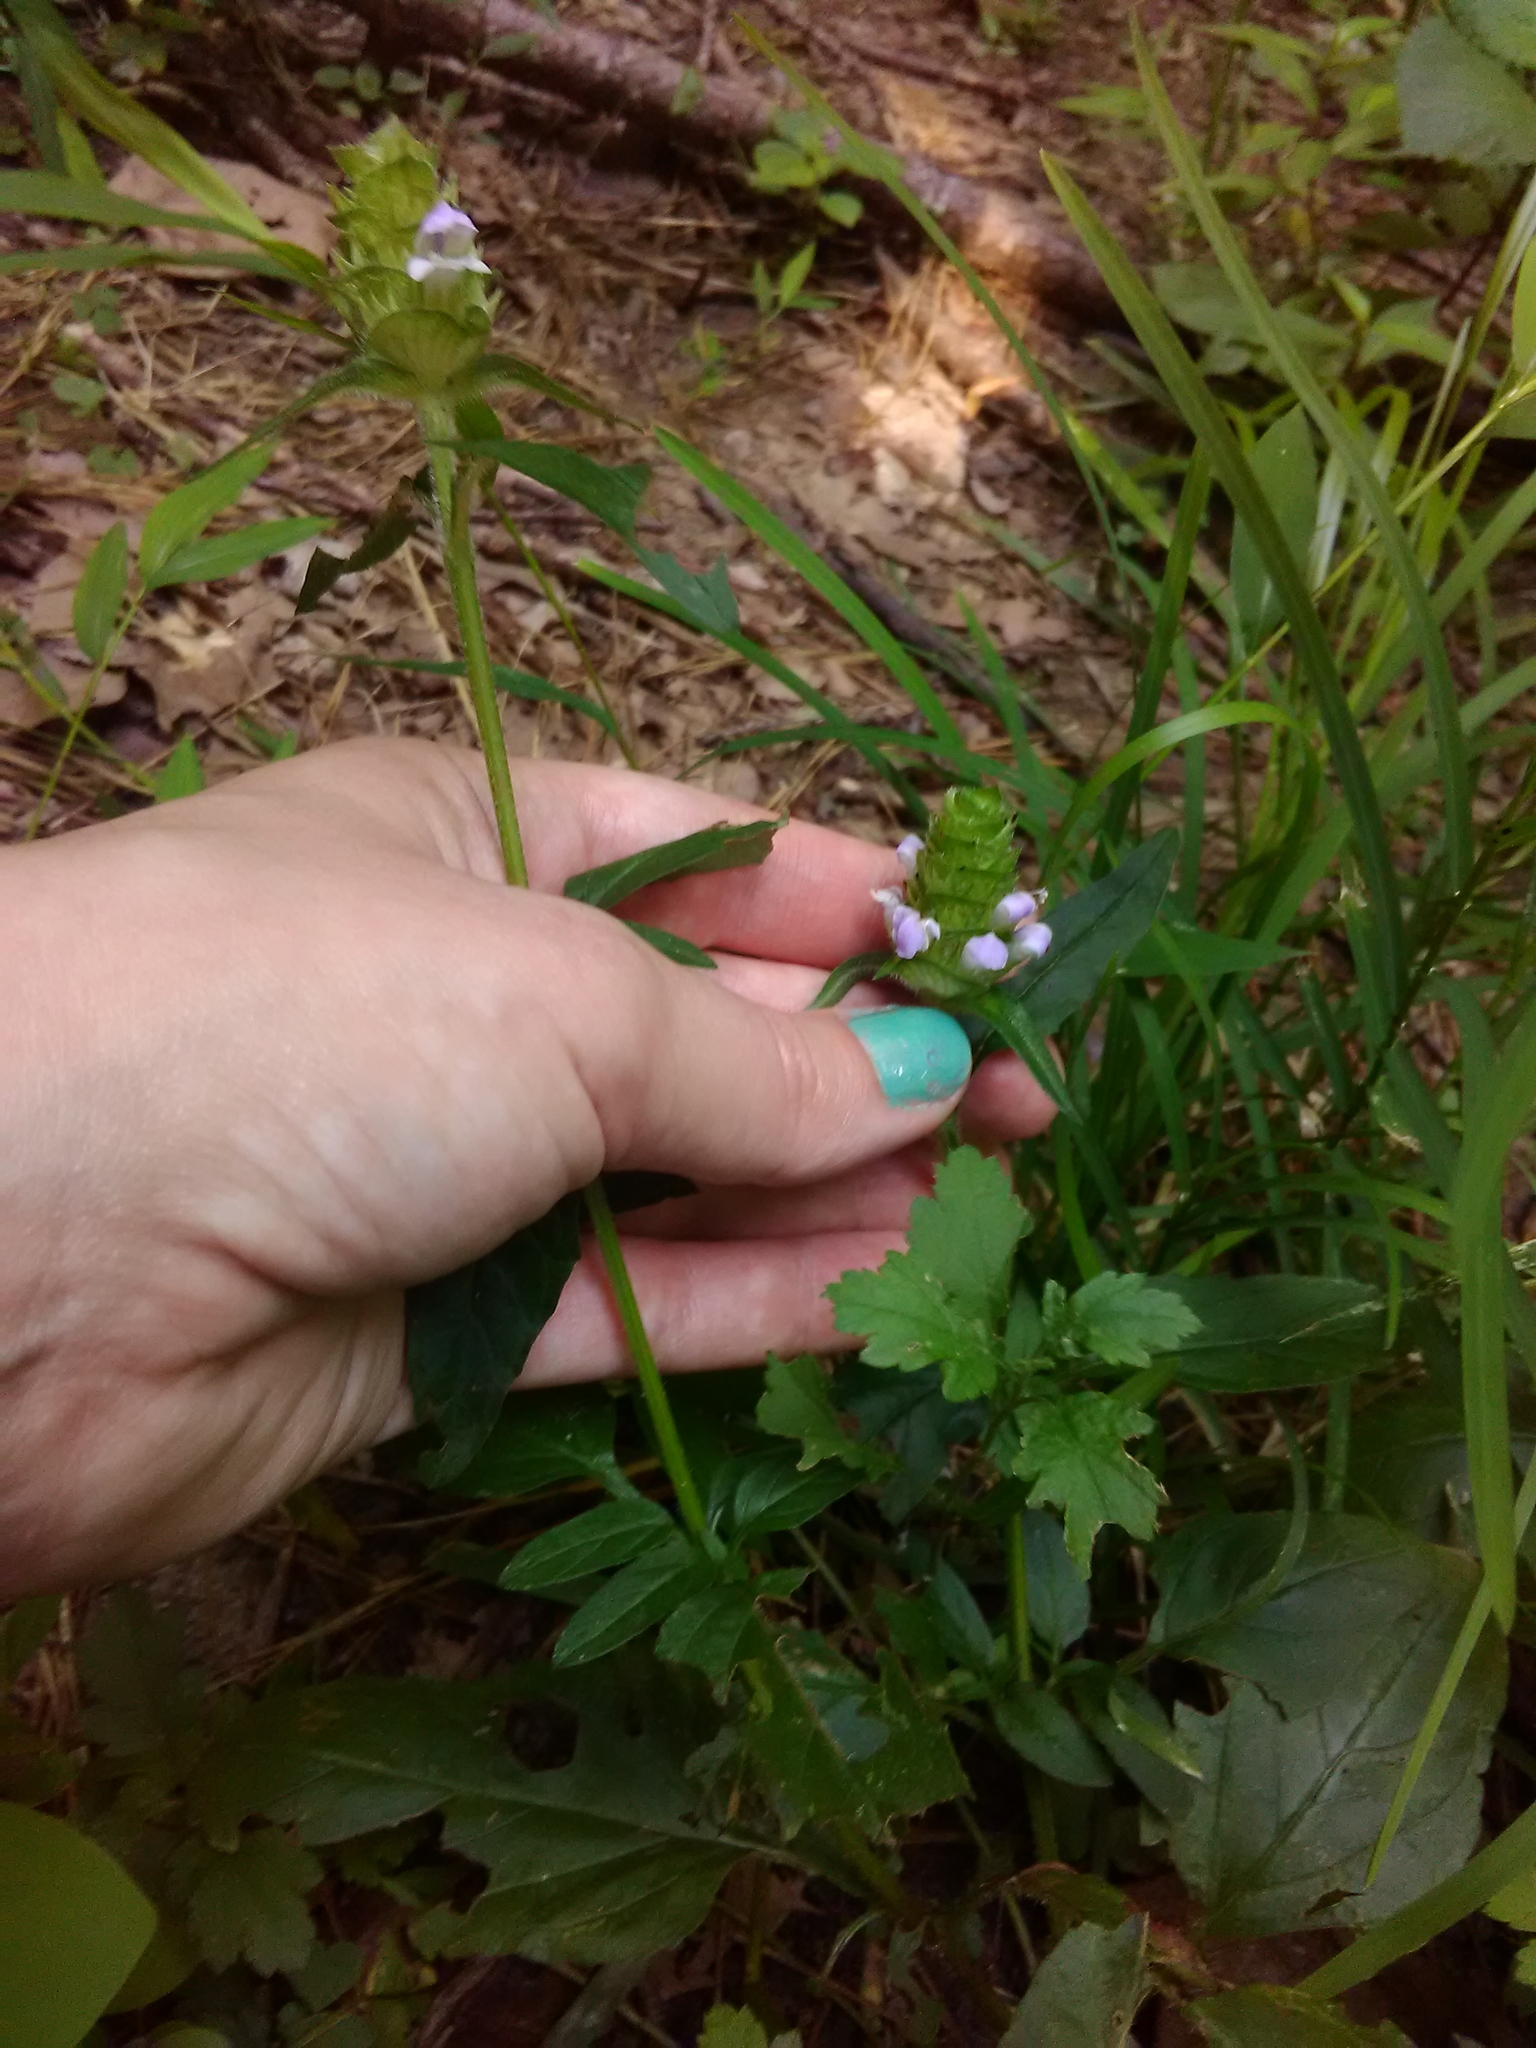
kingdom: Plantae
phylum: Tracheophyta
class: Magnoliopsida
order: Lamiales
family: Lamiaceae
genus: Prunella
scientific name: Prunella vulgaris
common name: Heal-all
